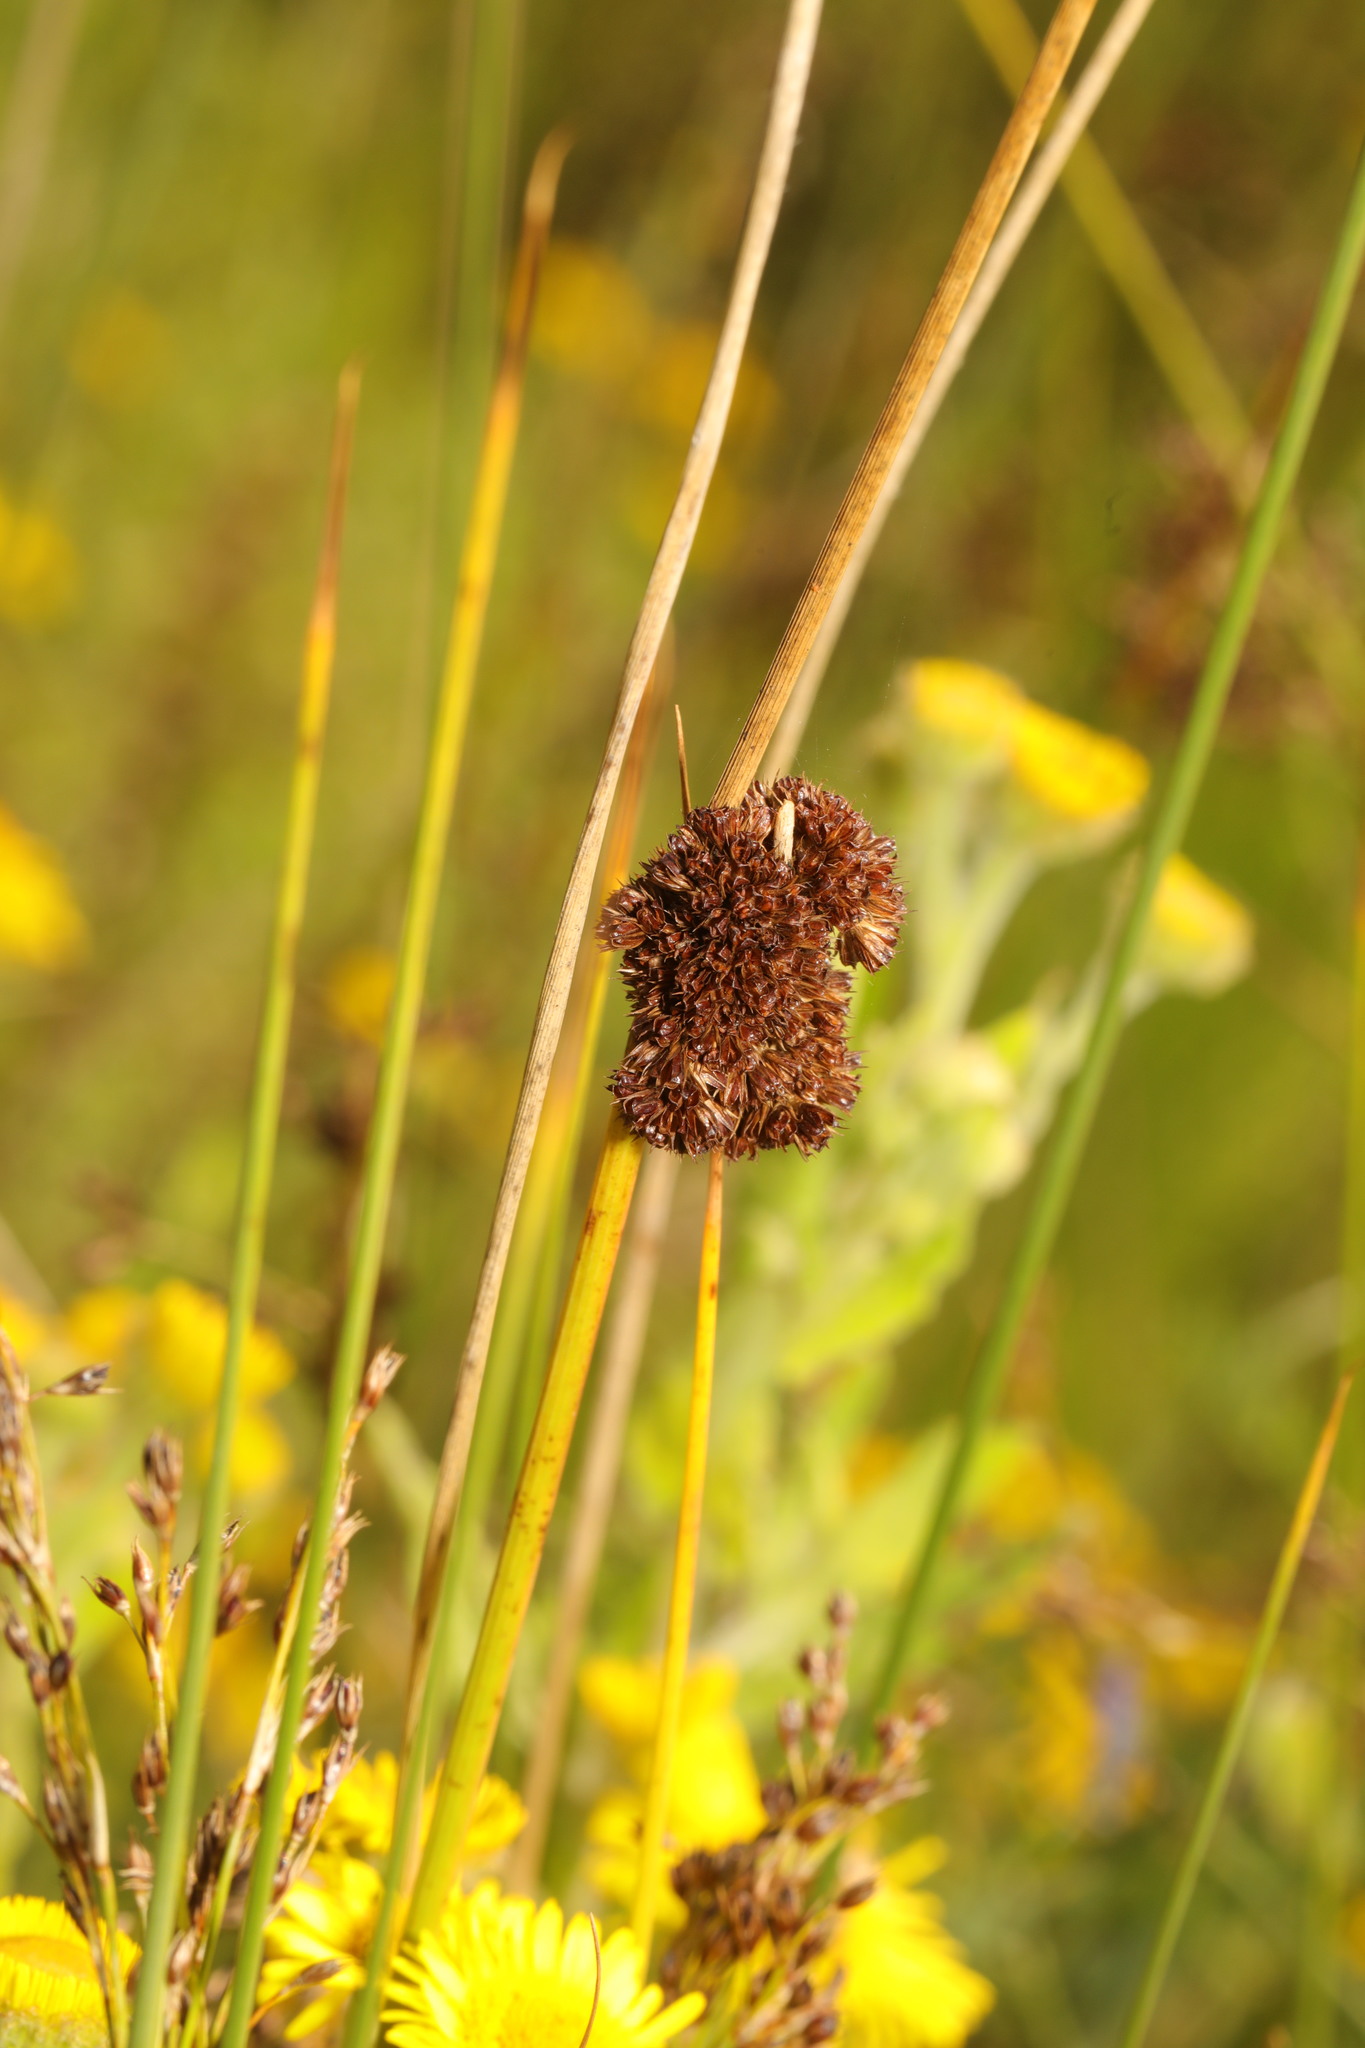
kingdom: Plantae
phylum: Tracheophyta
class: Liliopsida
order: Poales
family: Juncaceae
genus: Juncus
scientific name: Juncus conglomeratus
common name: Compact rush
